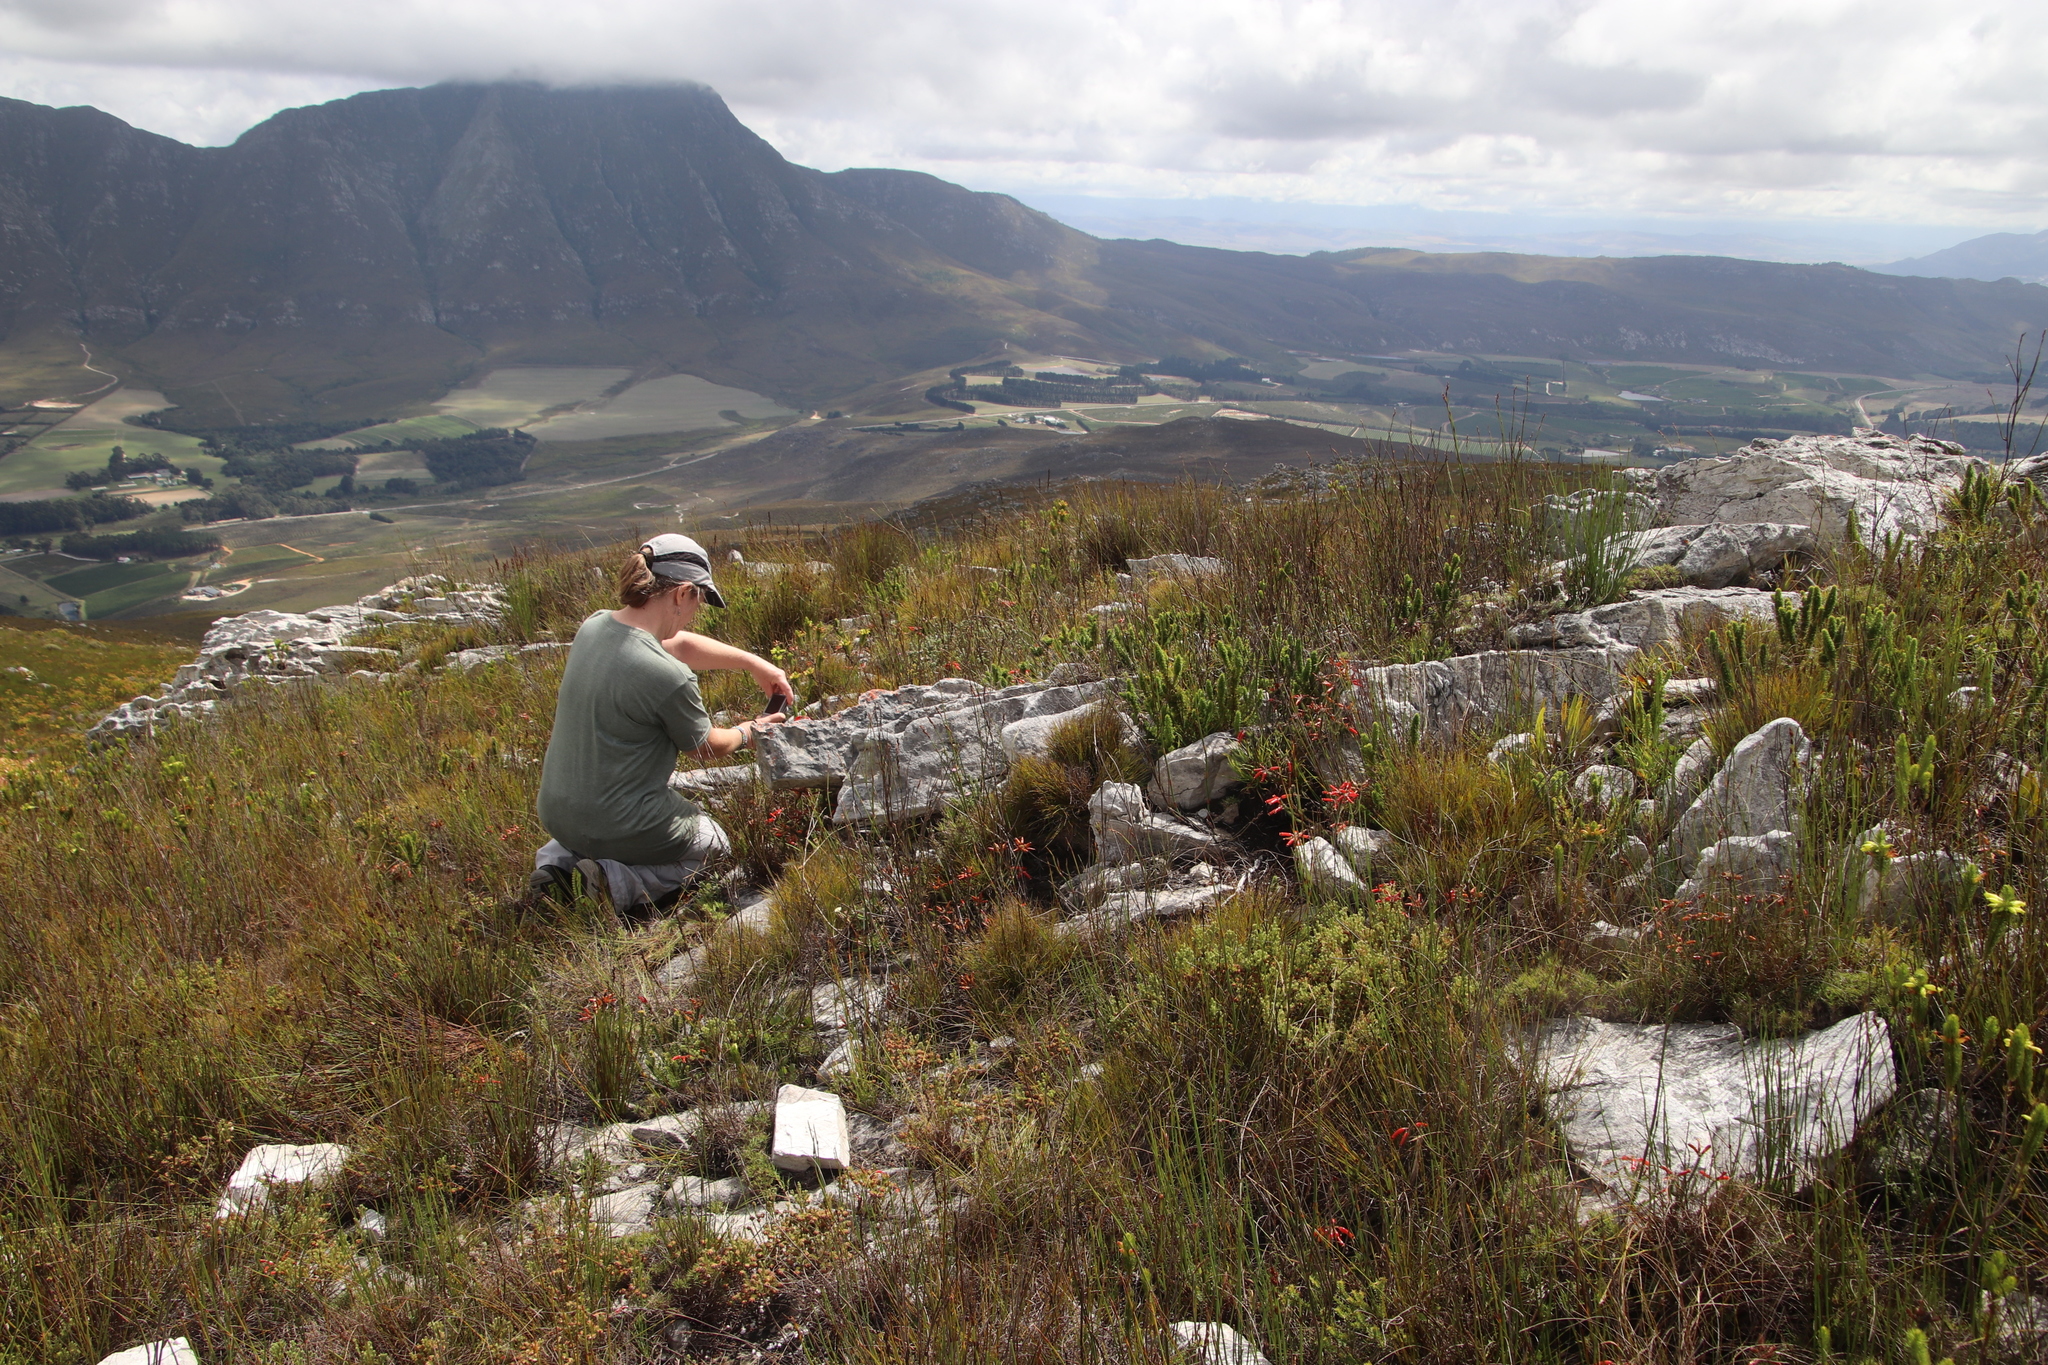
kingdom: Plantae
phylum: Tracheophyta
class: Magnoliopsida
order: Ericales
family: Ericaceae
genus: Erica
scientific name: Erica massonii
